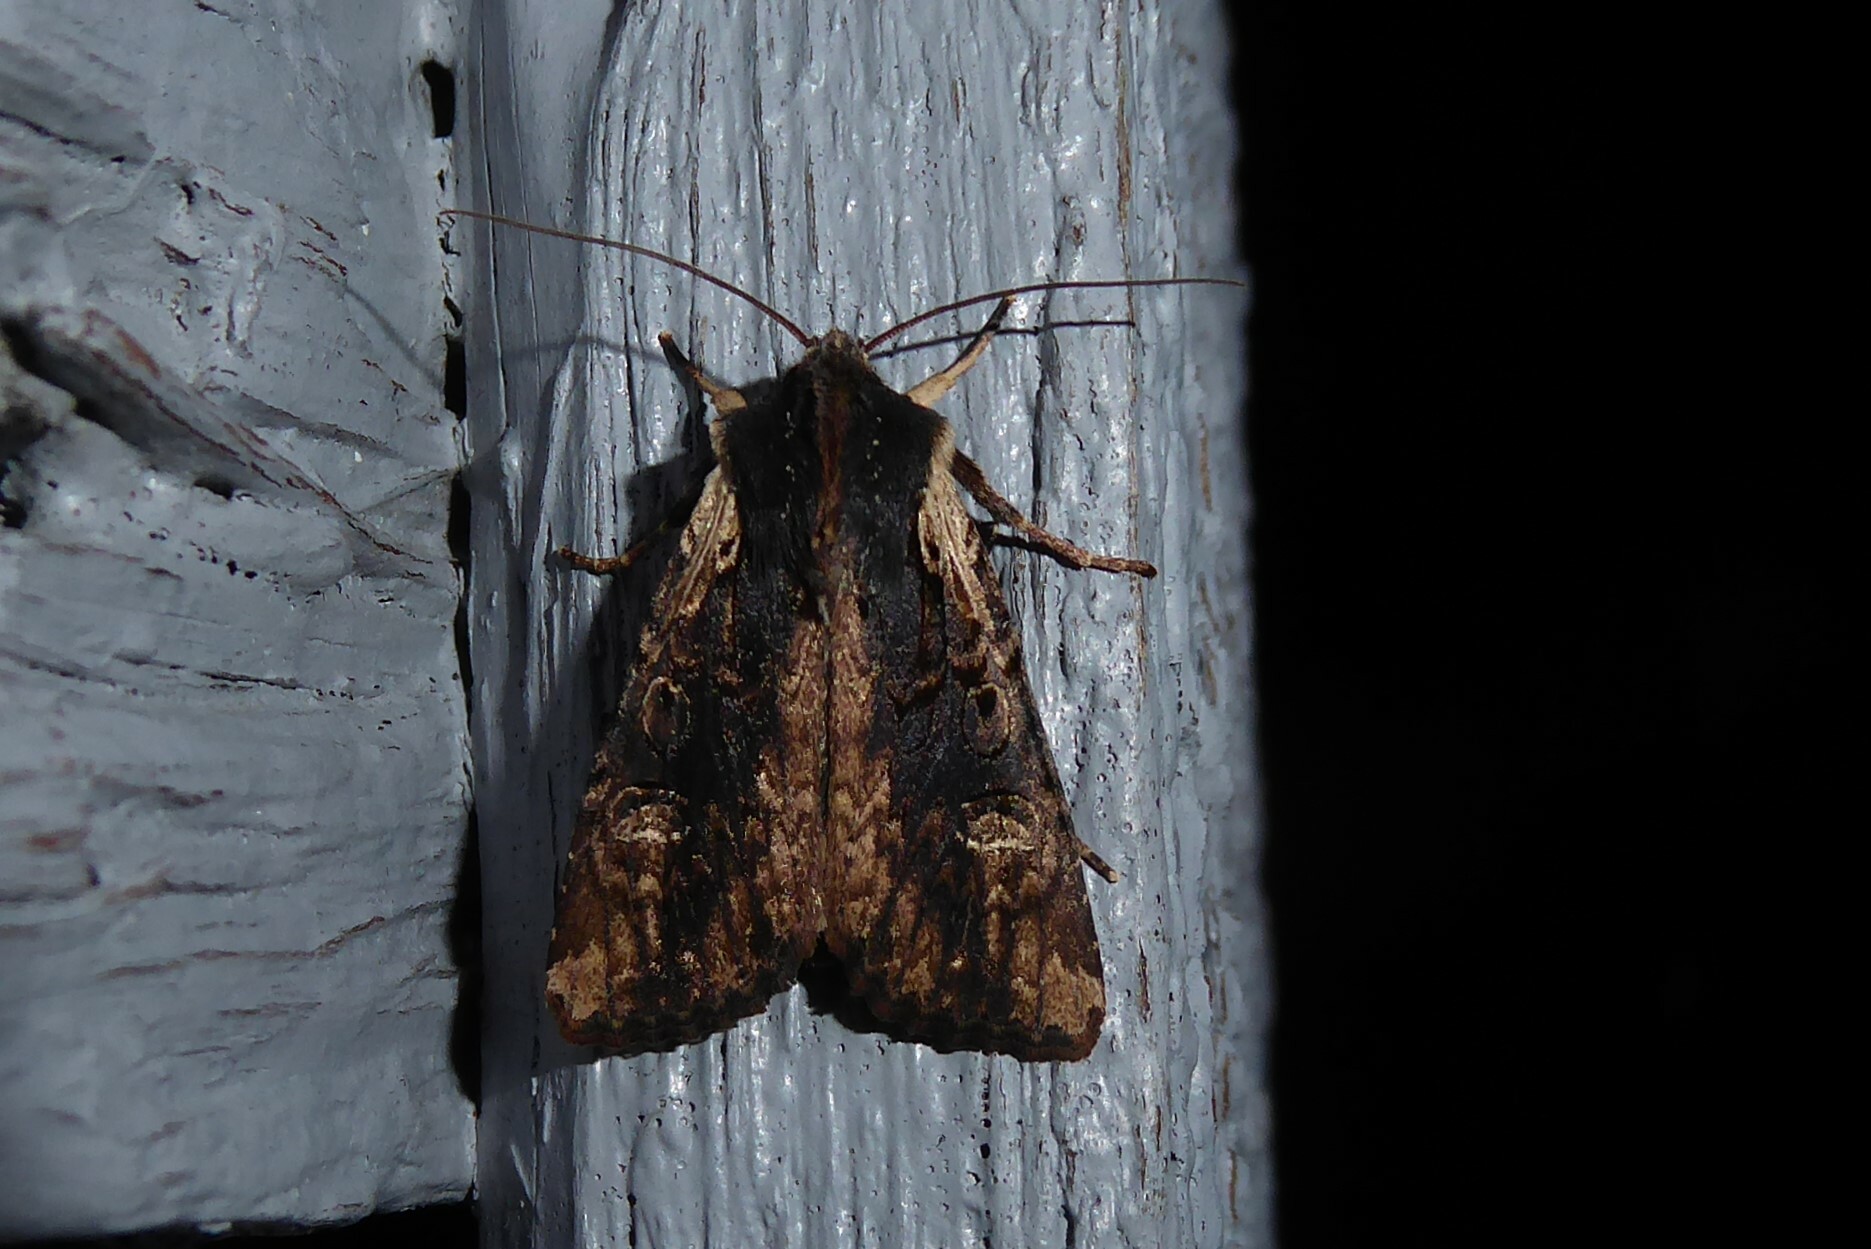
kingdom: Animalia
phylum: Arthropoda
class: Insecta
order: Lepidoptera
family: Noctuidae
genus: Ichneutica
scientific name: Ichneutica omoplaca
